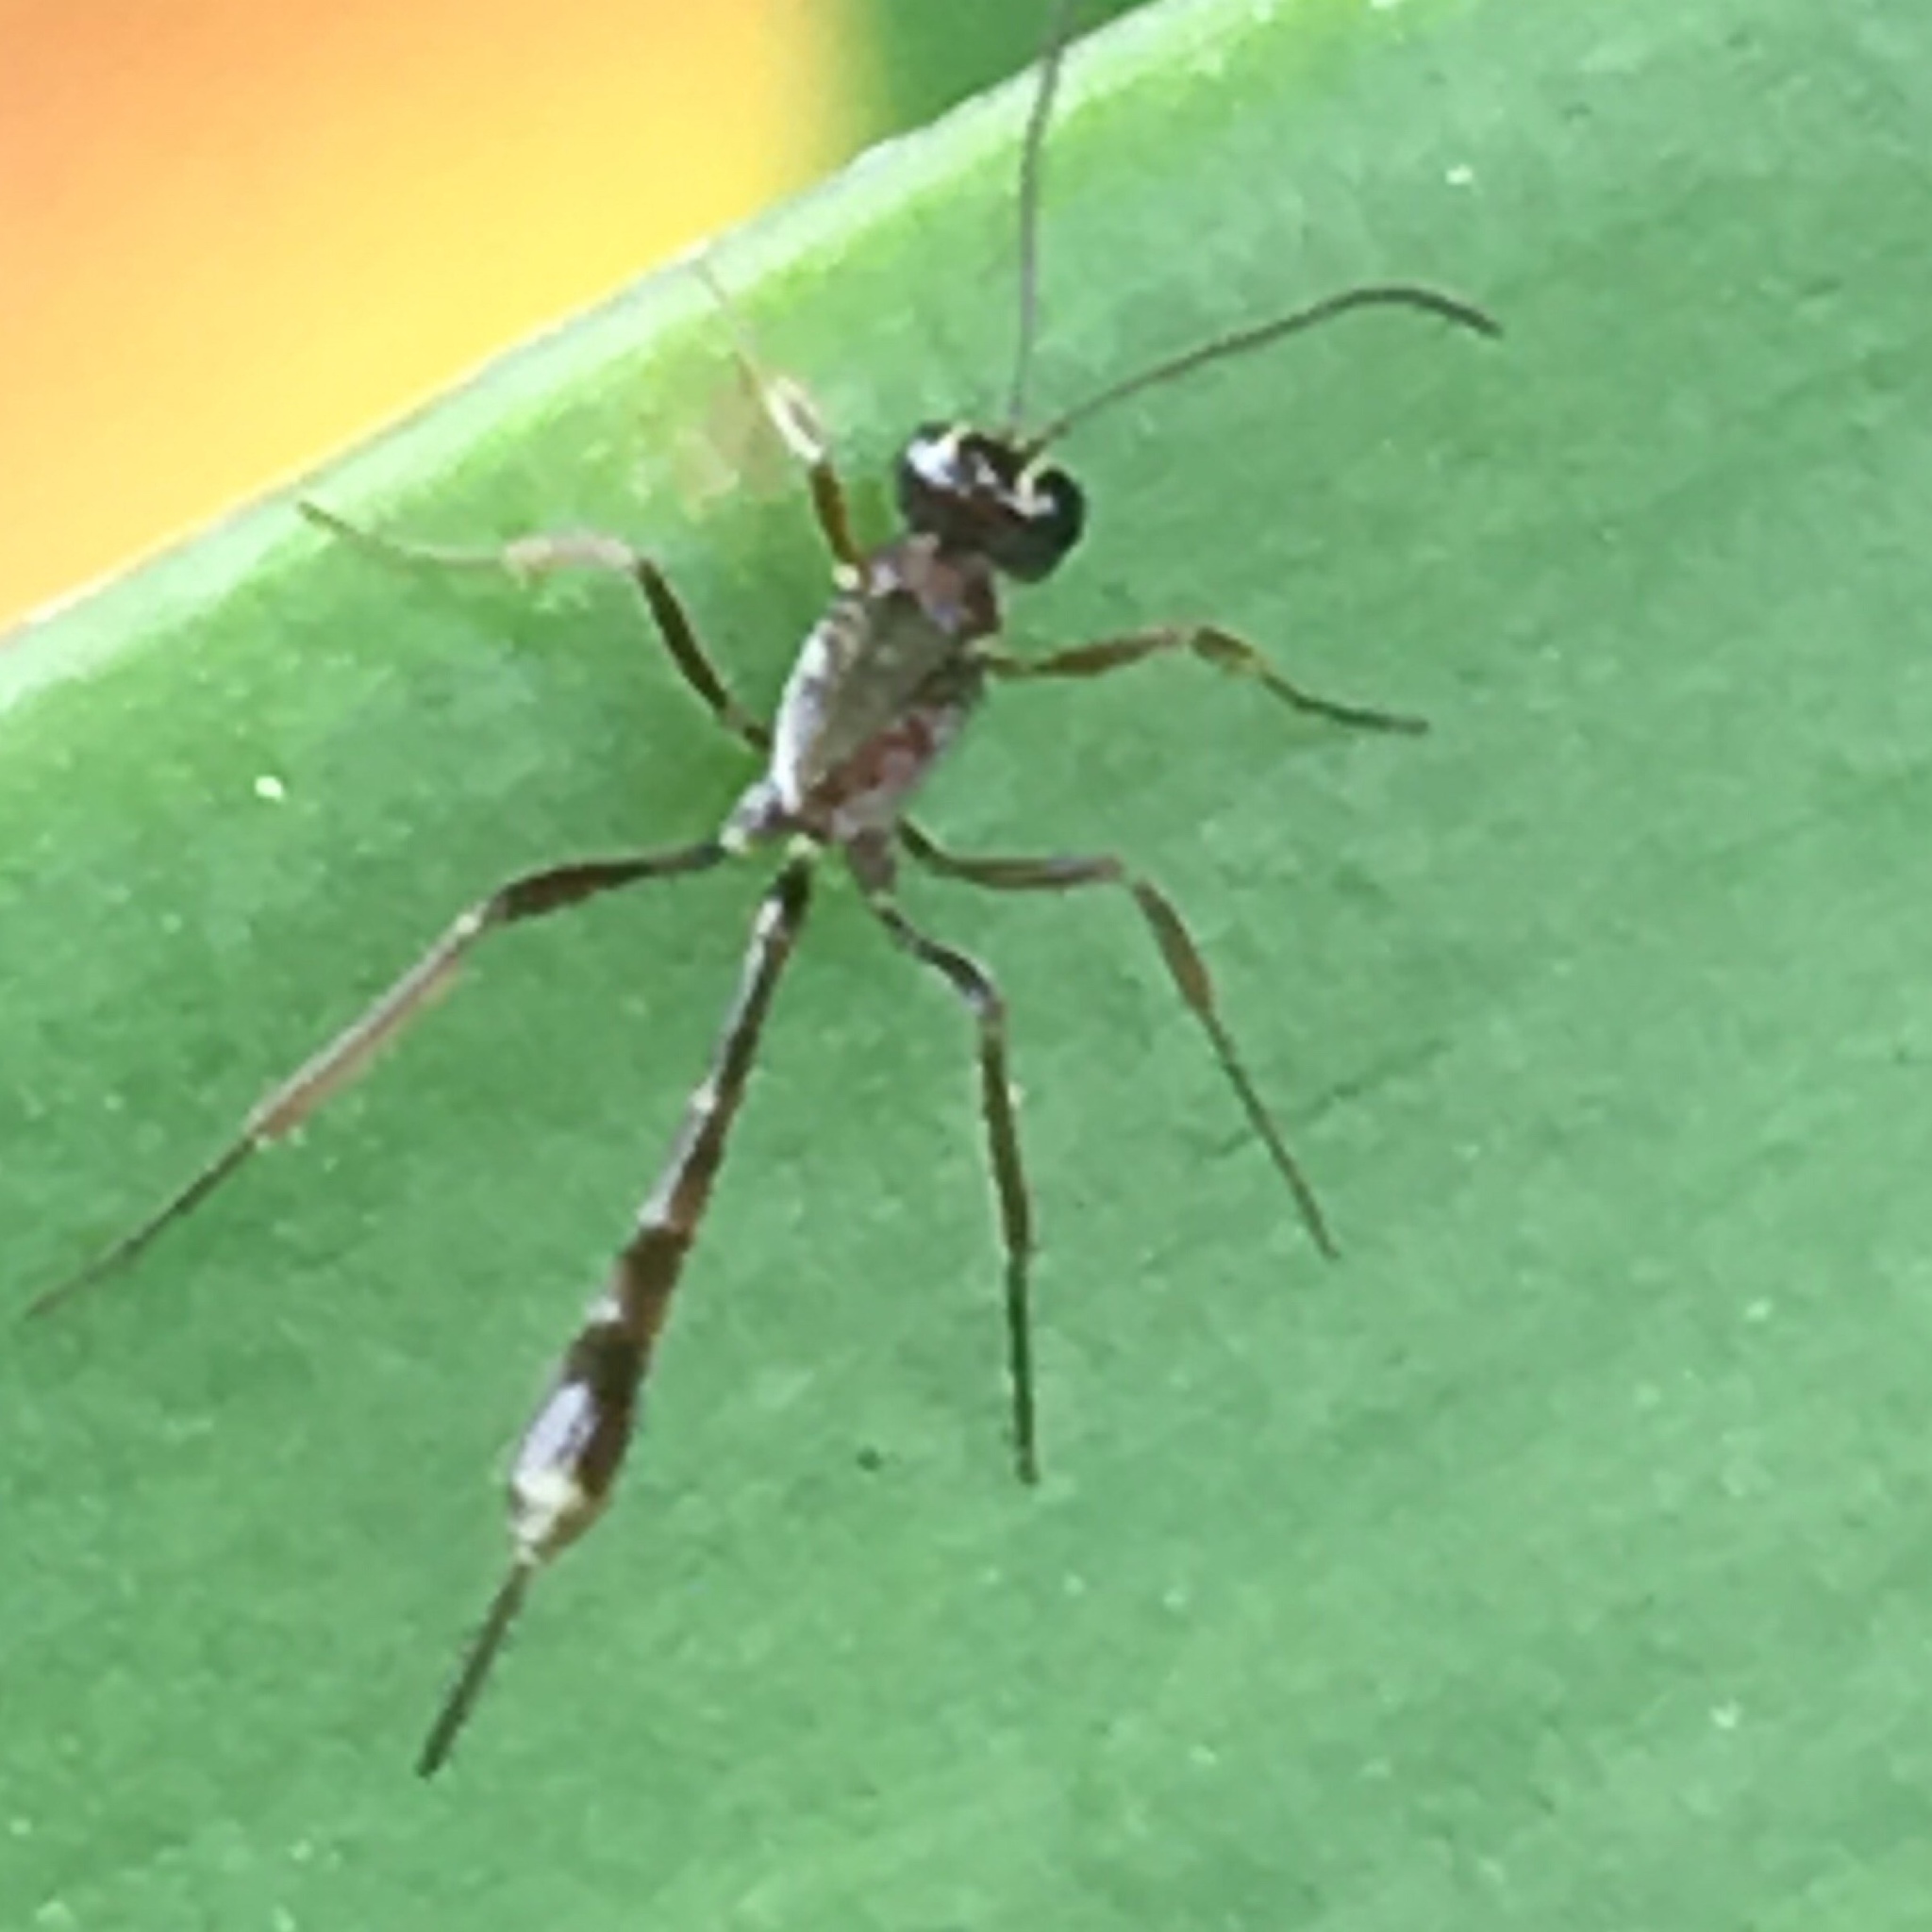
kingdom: Animalia
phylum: Arthropoda
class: Insecta
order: Hymenoptera
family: Ichneumonidae
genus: Anomalon
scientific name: Anomalon
